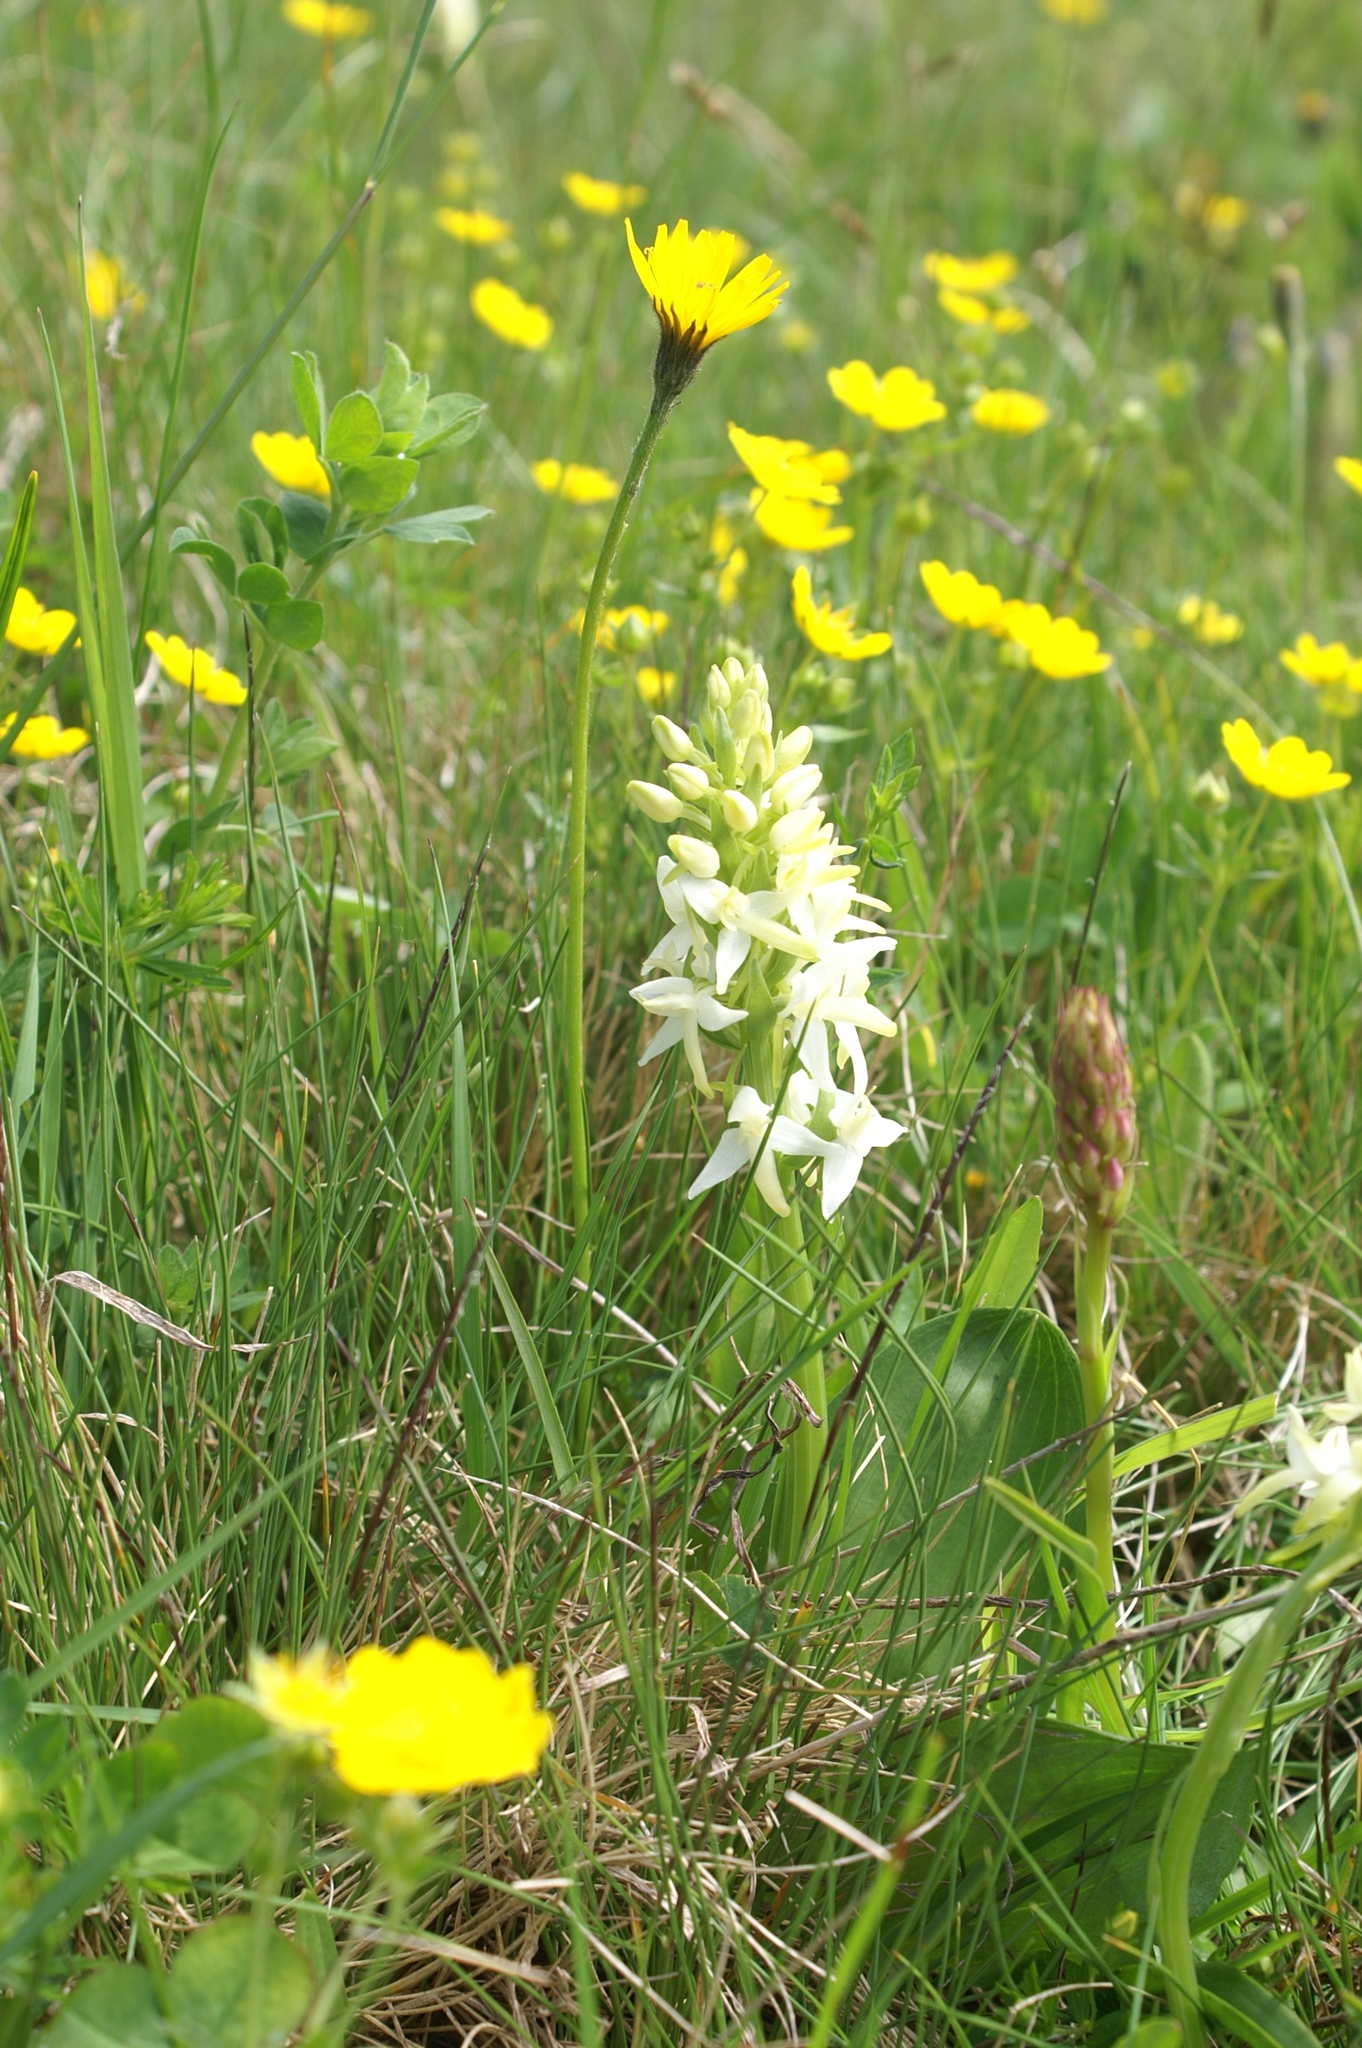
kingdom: Plantae
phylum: Tracheophyta
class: Liliopsida
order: Asparagales
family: Orchidaceae
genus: Platanthera
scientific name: Platanthera bifolia
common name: Lesser butterfly-orchid
